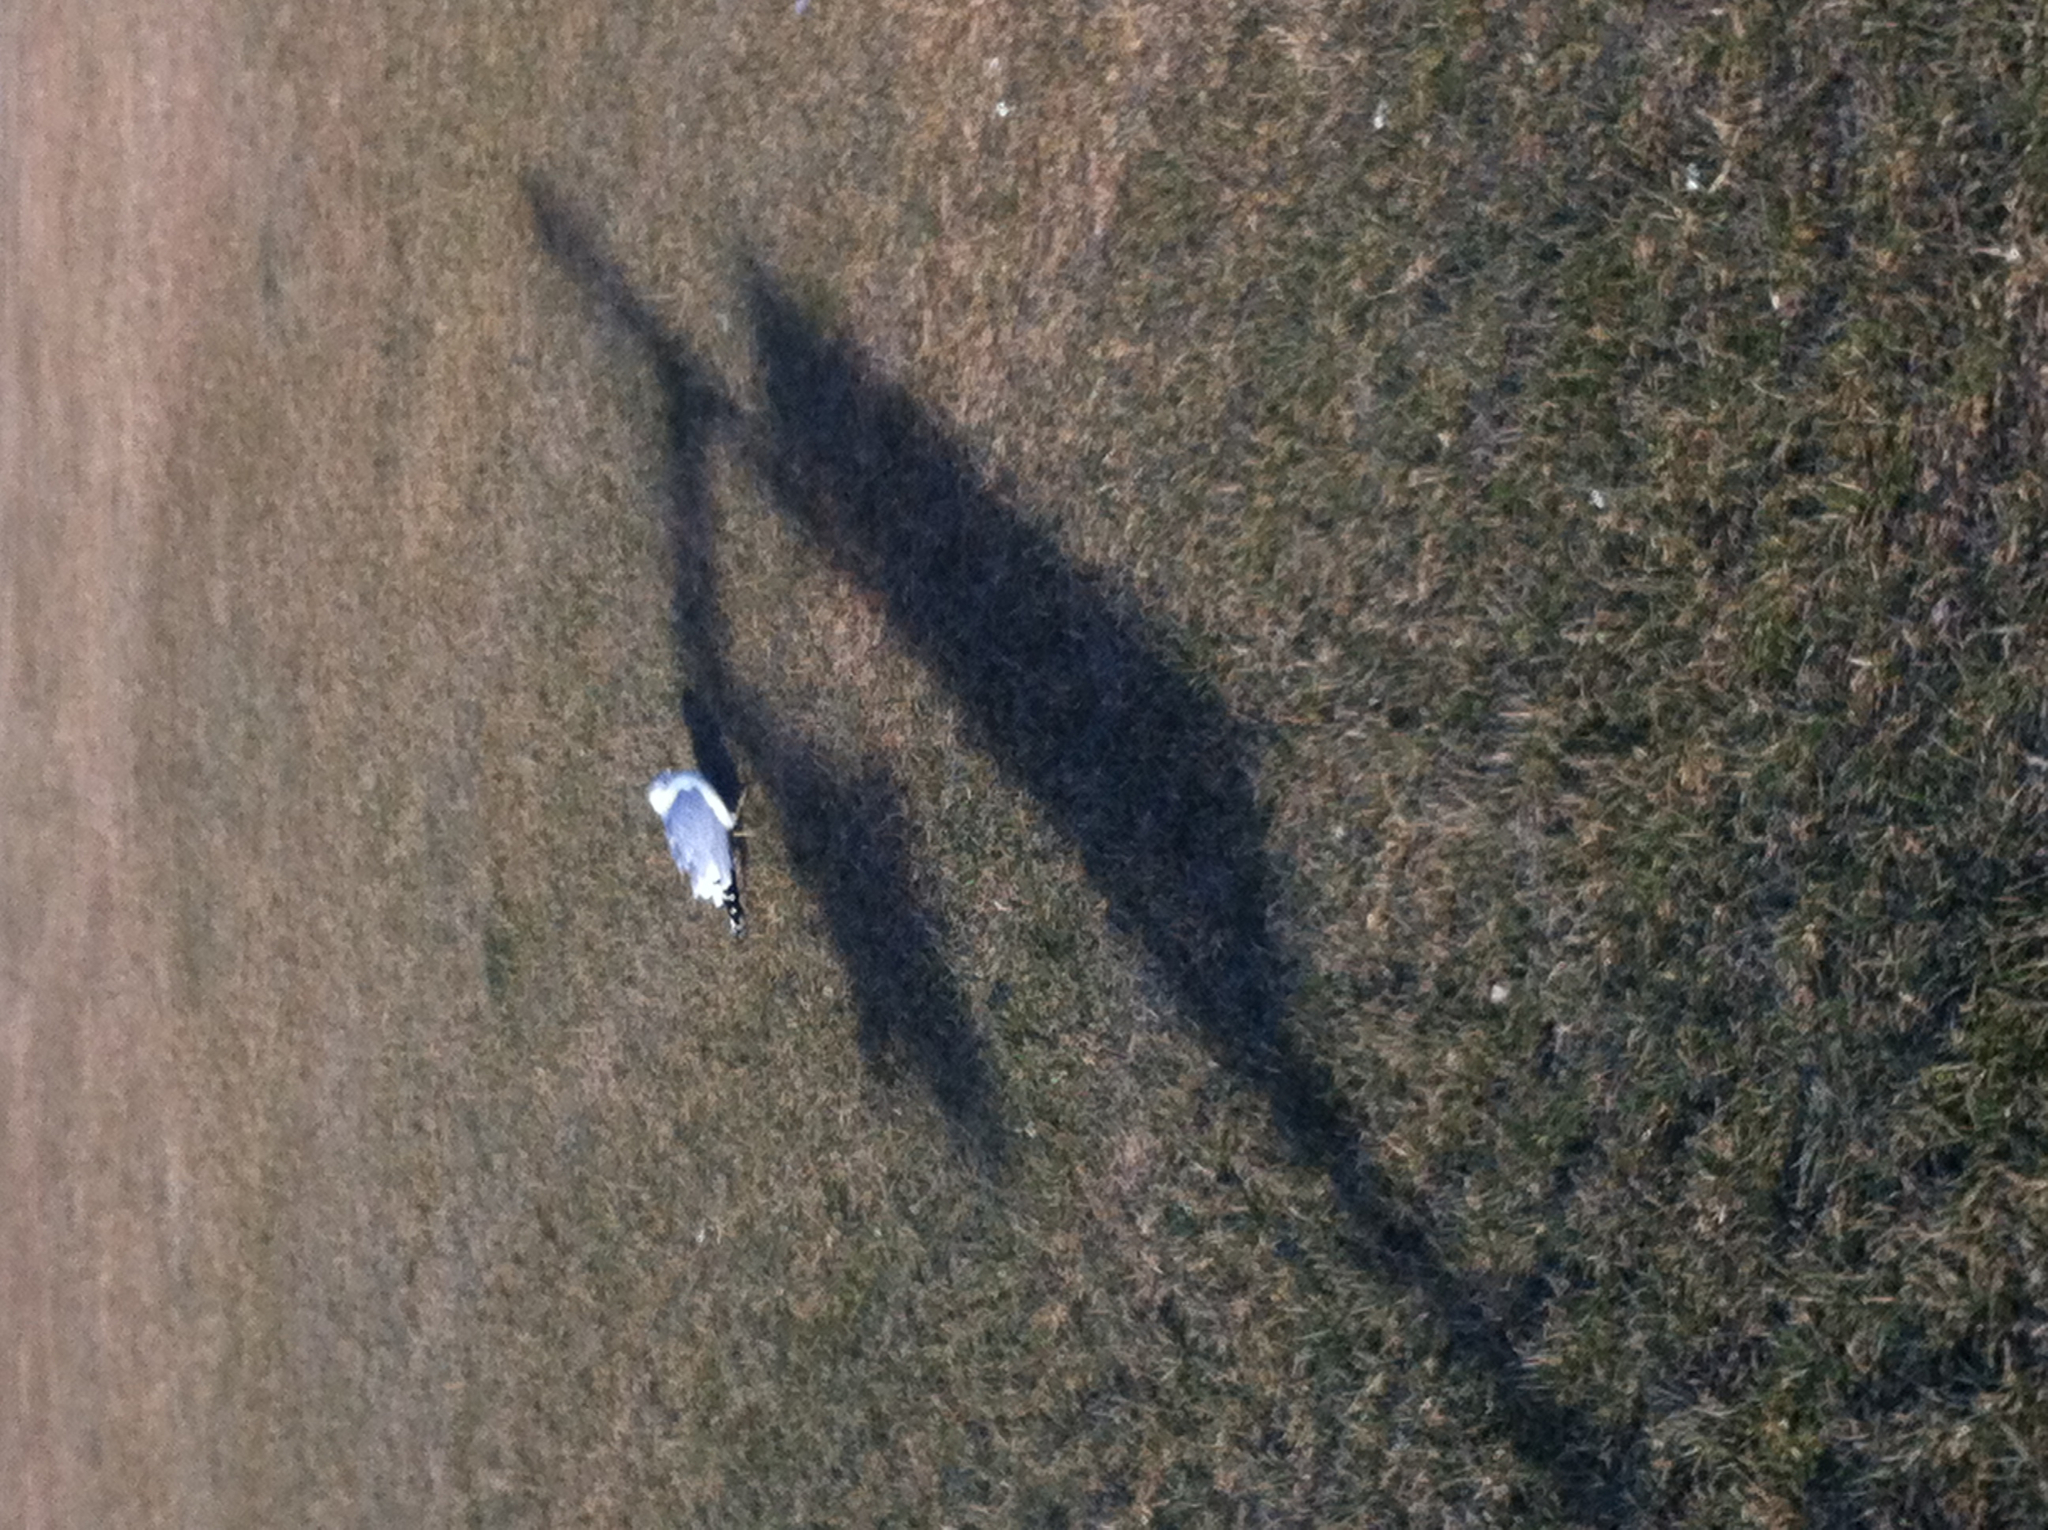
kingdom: Animalia
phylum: Chordata
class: Aves
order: Charadriiformes
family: Laridae
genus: Larus
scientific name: Larus delawarensis
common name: Ring-billed gull
